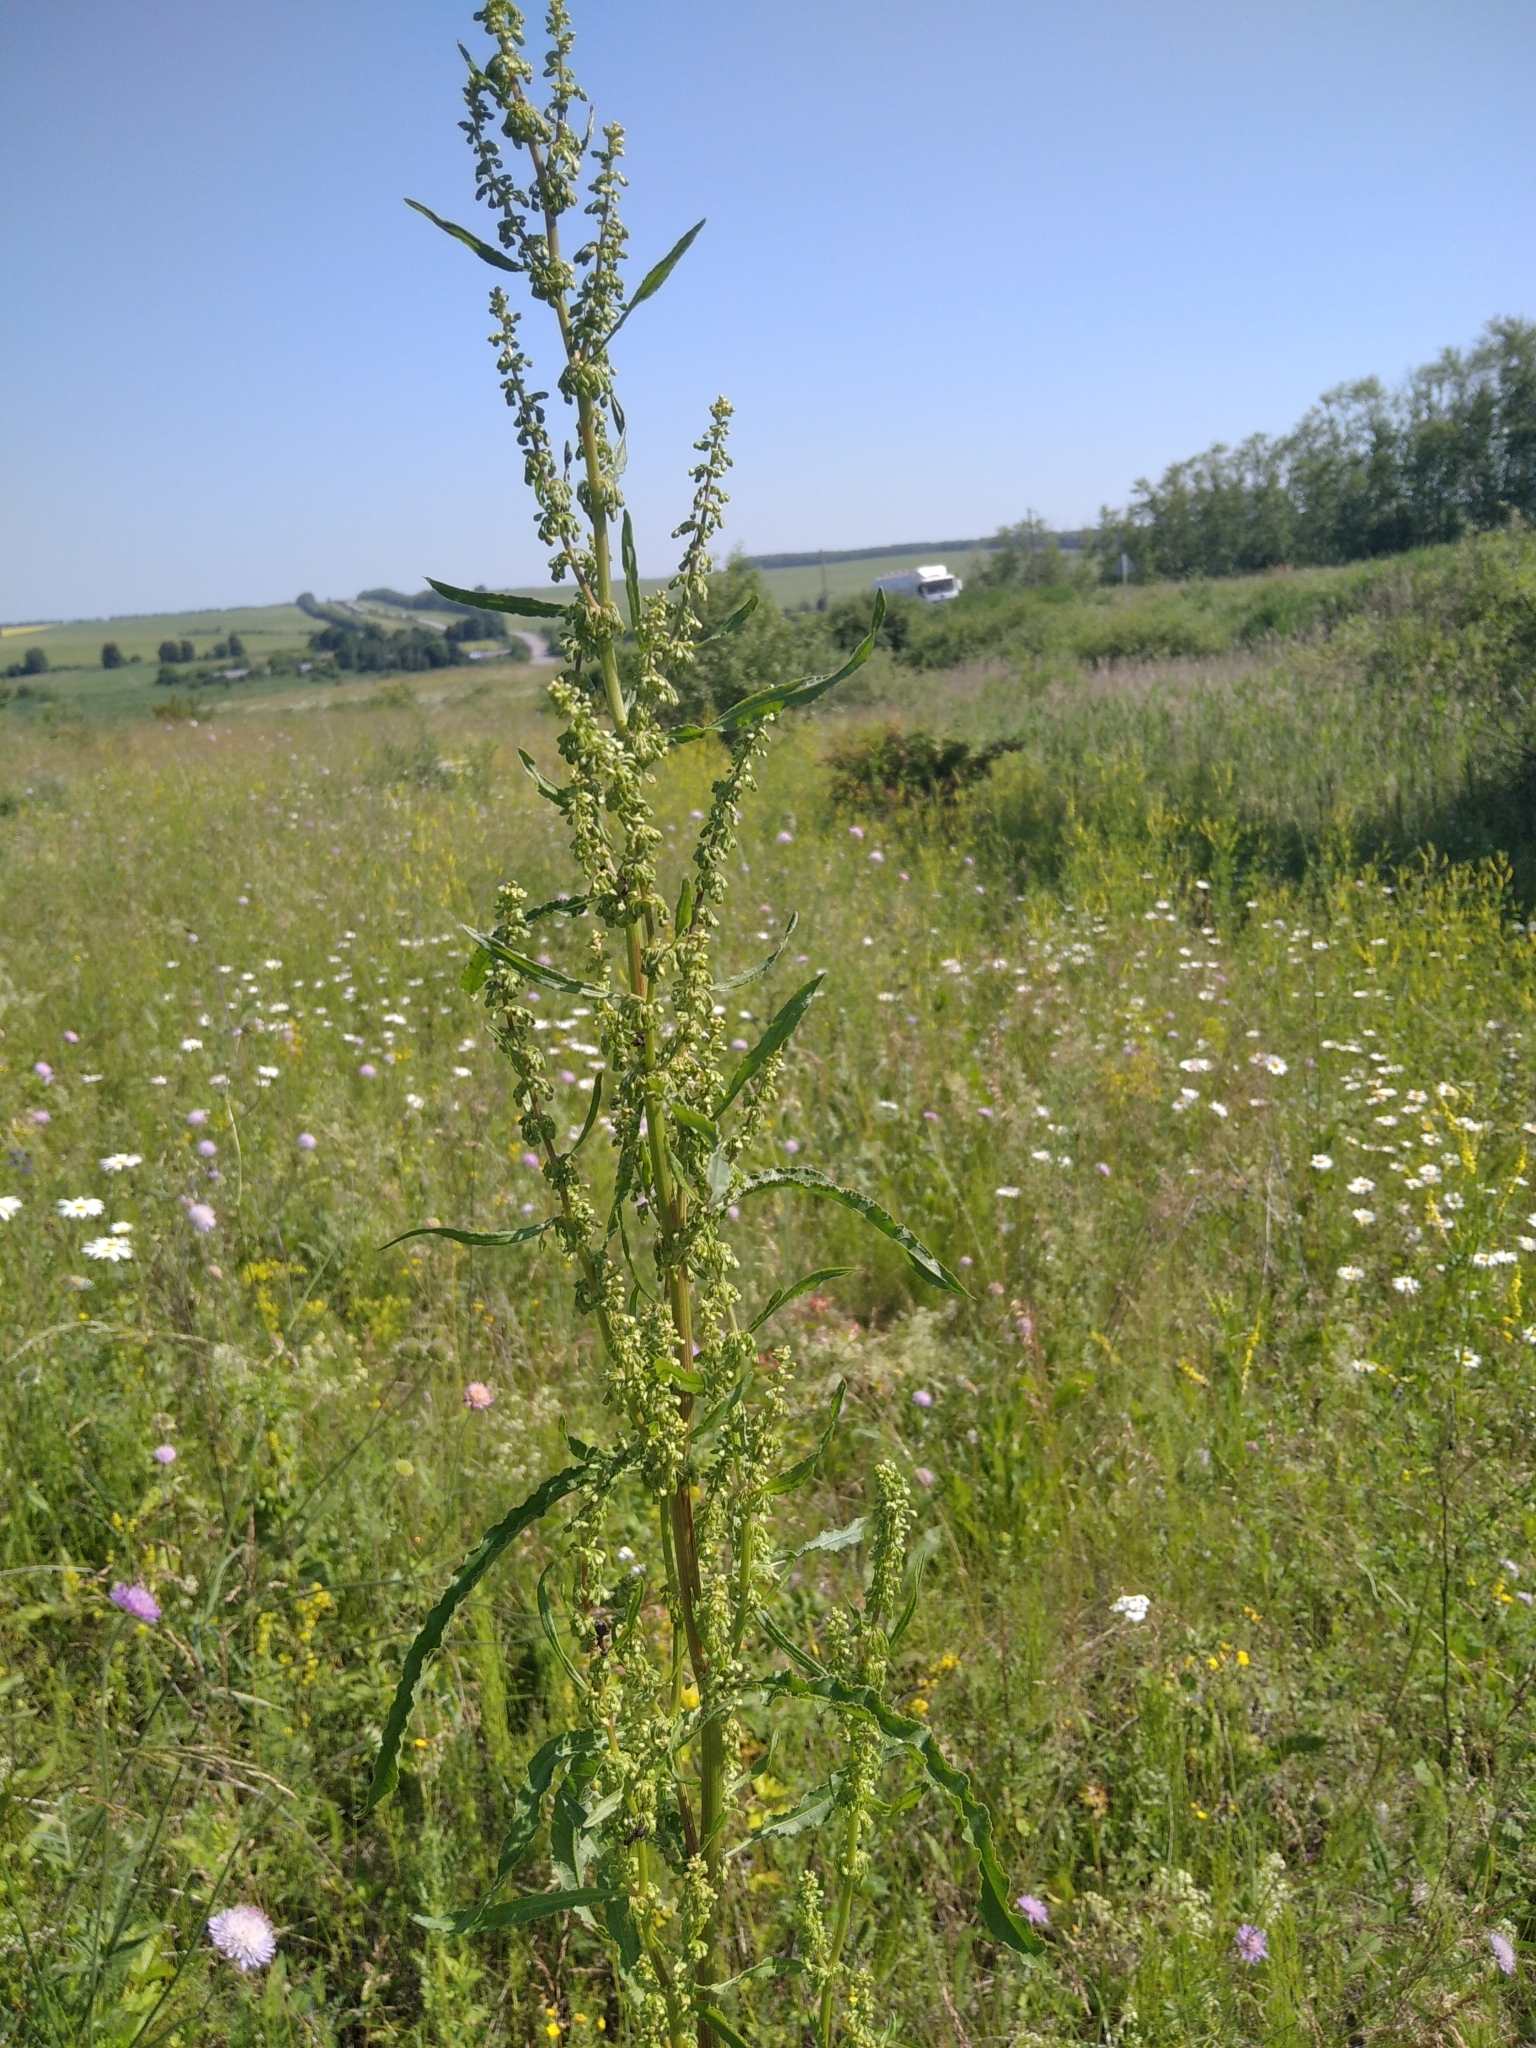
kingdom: Plantae
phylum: Tracheophyta
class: Magnoliopsida
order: Caryophyllales
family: Polygonaceae
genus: Rumex
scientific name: Rumex crispus
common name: Curled dock
